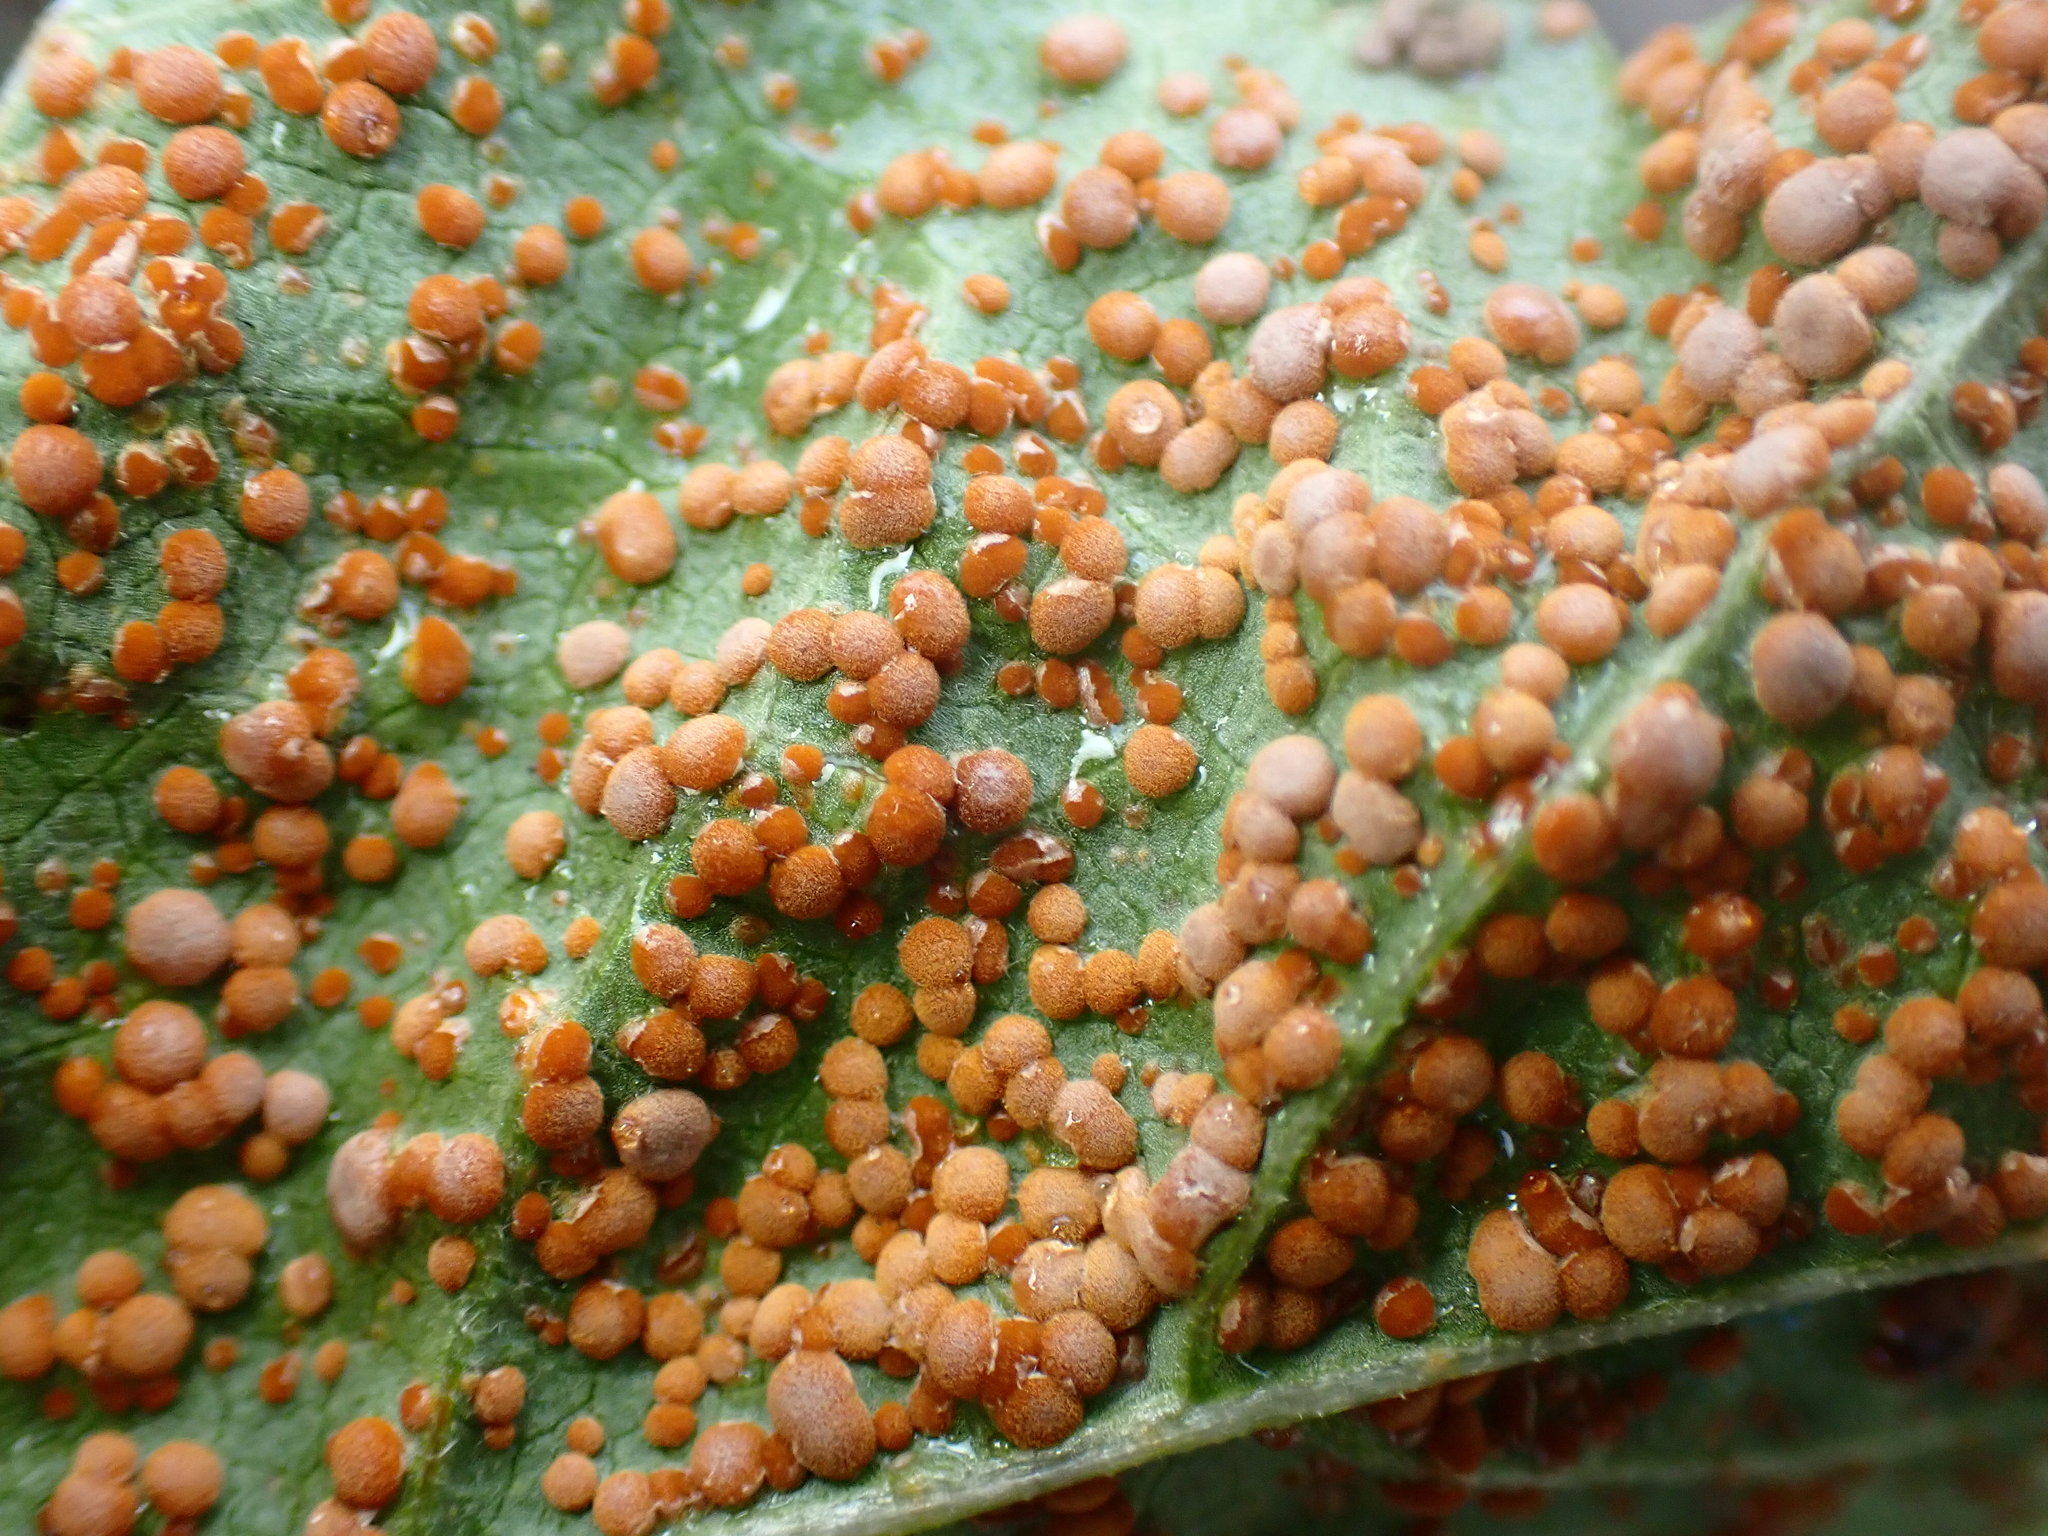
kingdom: Fungi
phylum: Basidiomycota
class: Pucciniomycetes
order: Pucciniales
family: Pucciniaceae
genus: Puccinia
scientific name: Puccinia malvacearum
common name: Hollyhock rust
